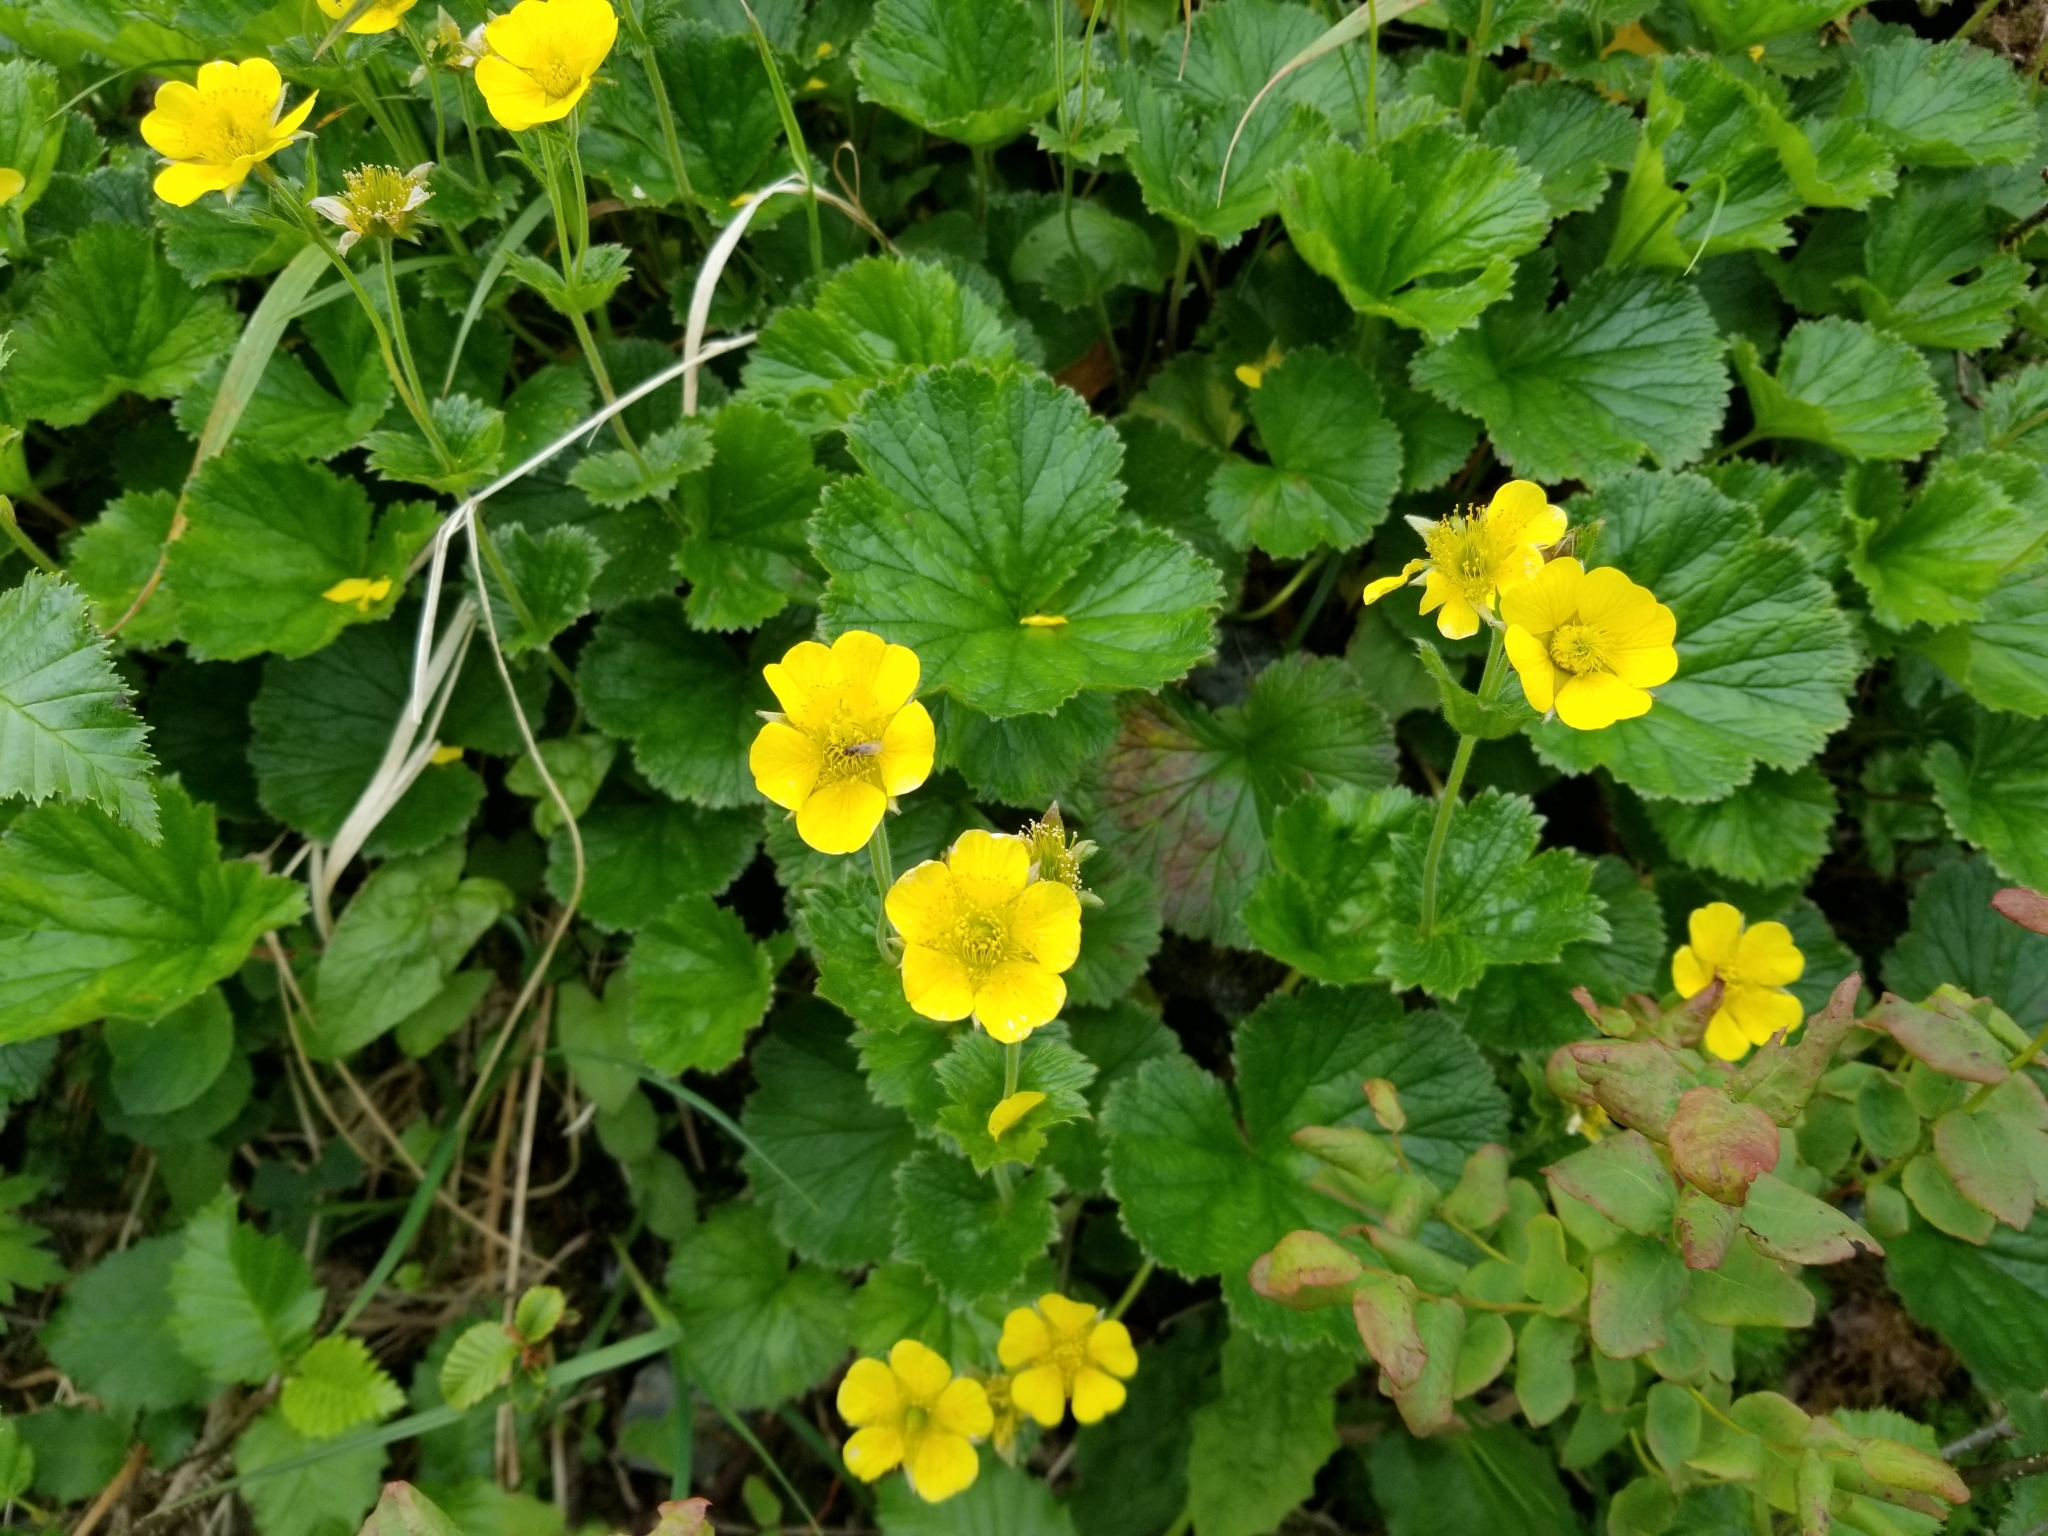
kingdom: Plantae
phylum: Tracheophyta
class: Magnoliopsida
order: Rosales
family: Rosaceae
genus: Geum
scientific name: Geum calthifolium
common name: Caltha-leaved avens
